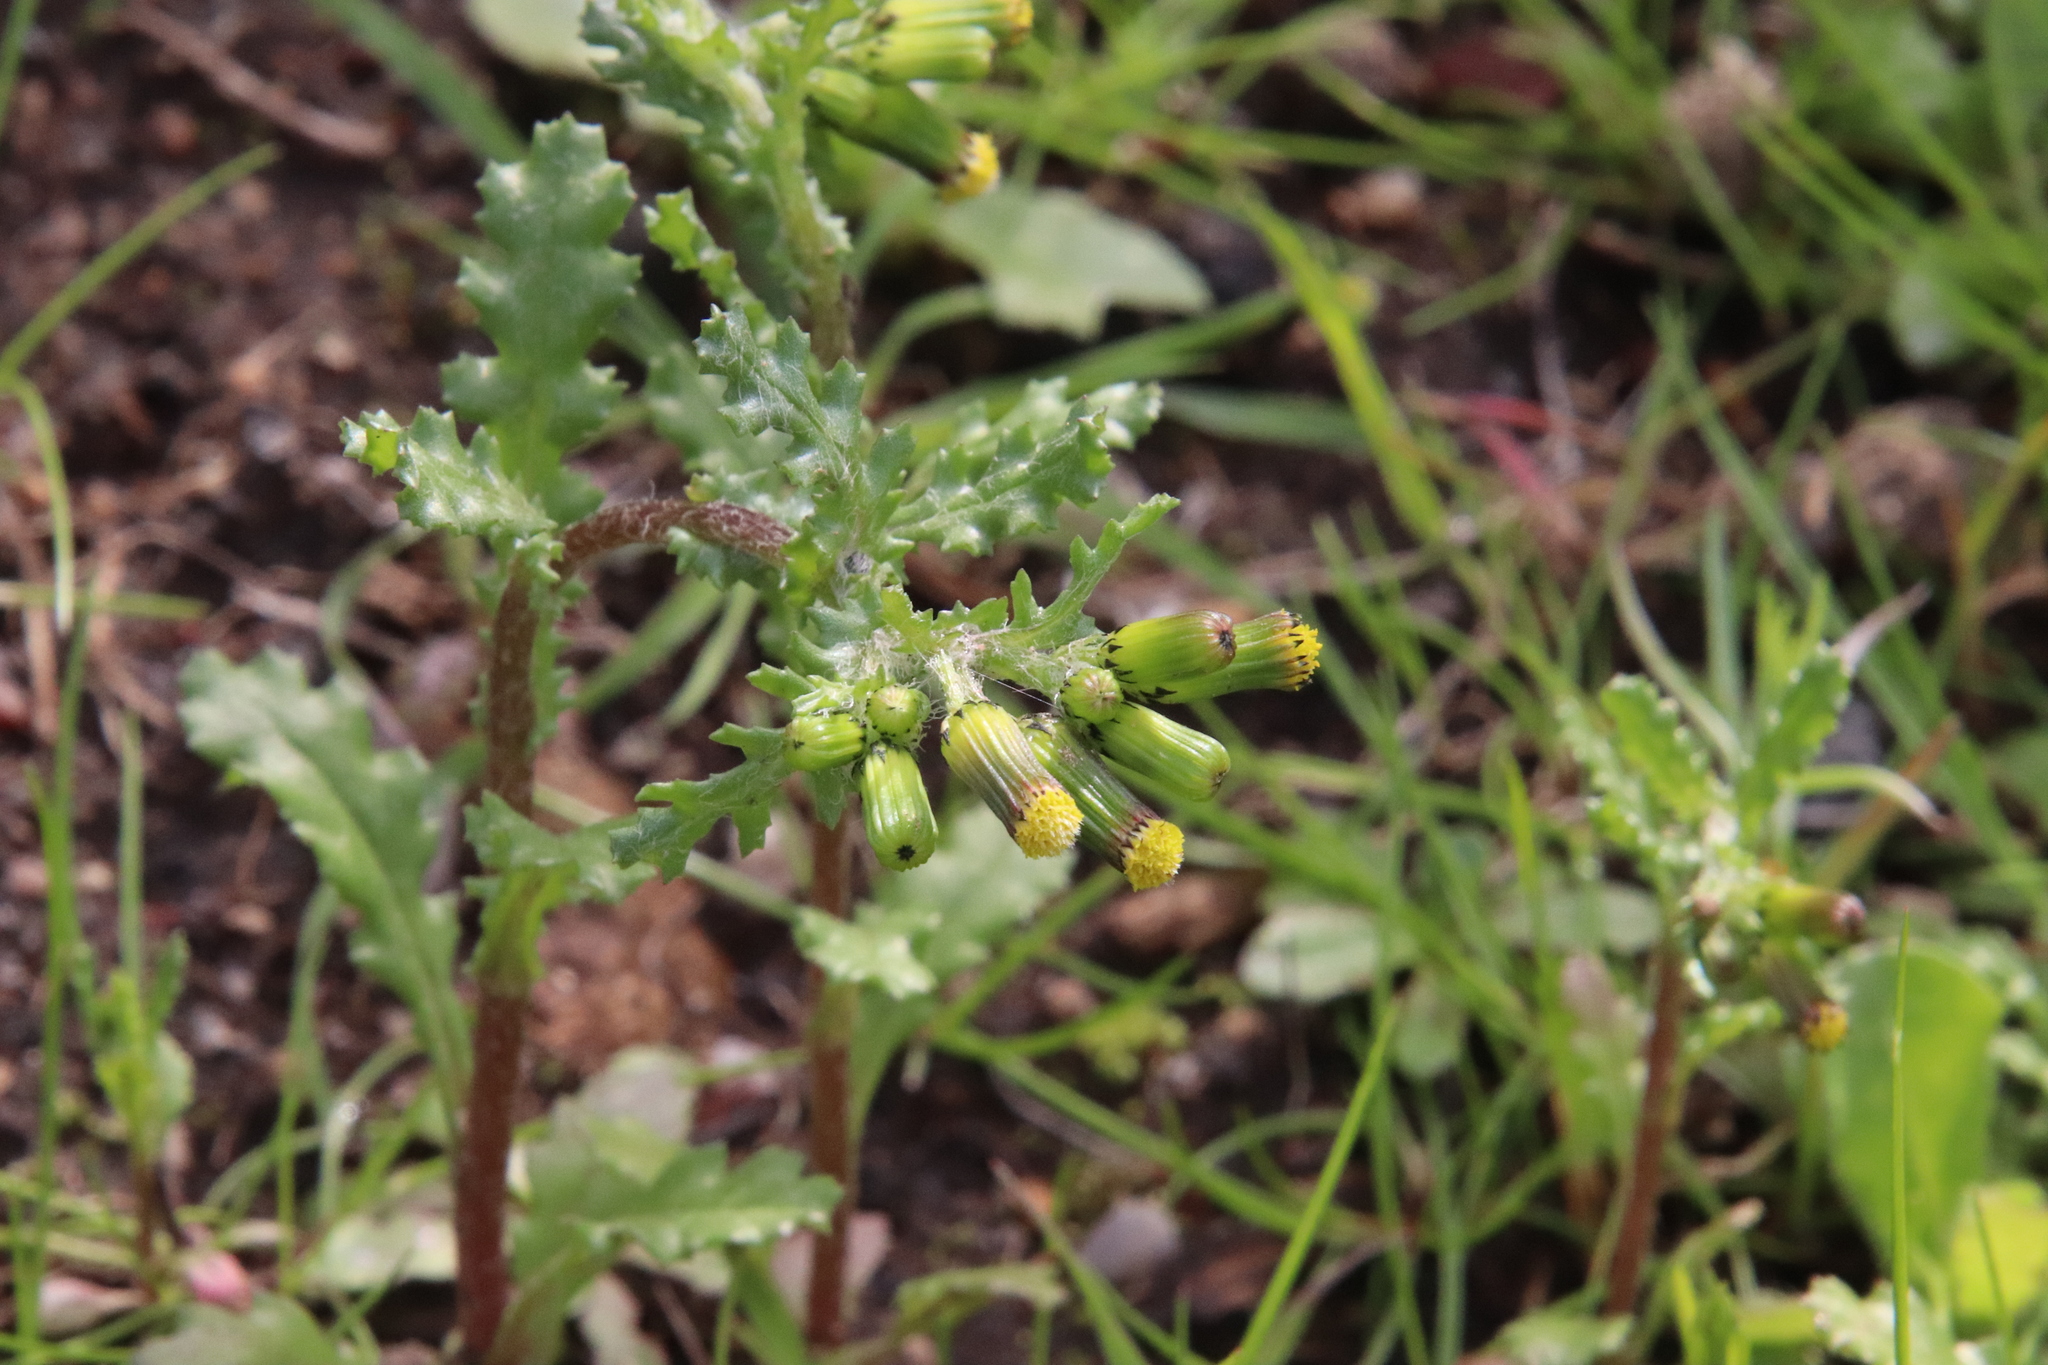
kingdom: Plantae
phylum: Tracheophyta
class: Magnoliopsida
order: Asterales
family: Asteraceae
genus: Senecio
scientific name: Senecio vulgaris
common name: Old-man-in-the-spring
